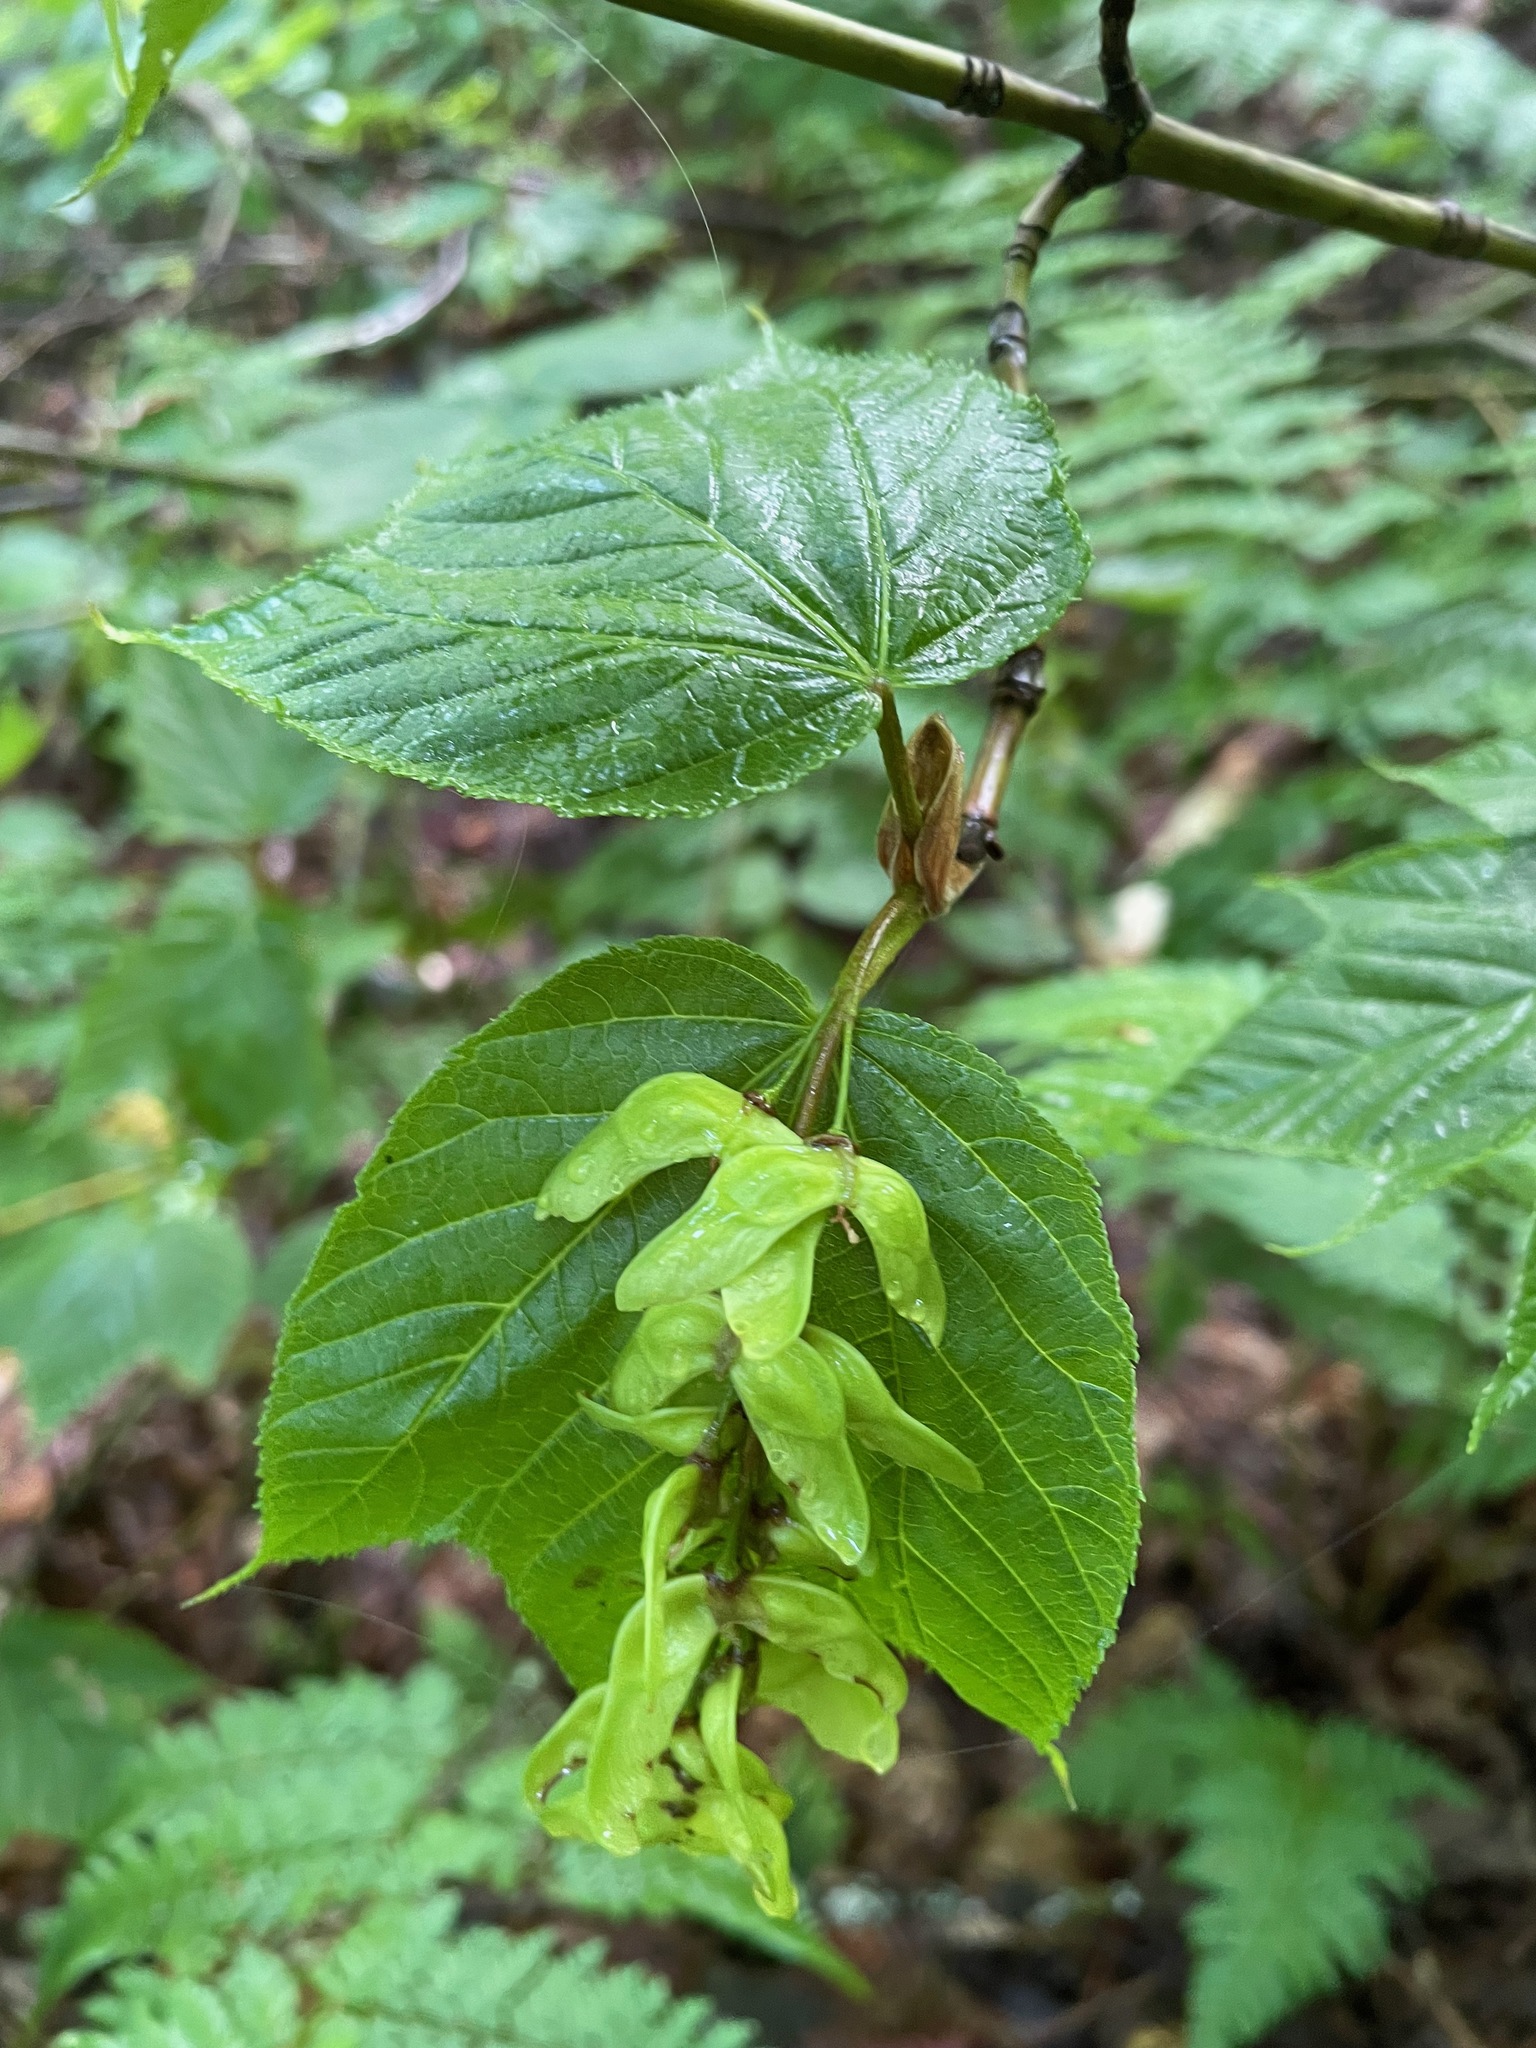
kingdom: Plantae
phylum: Tracheophyta
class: Magnoliopsida
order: Sapindales
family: Sapindaceae
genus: Acer
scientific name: Acer pensylvanicum
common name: Moosewood
